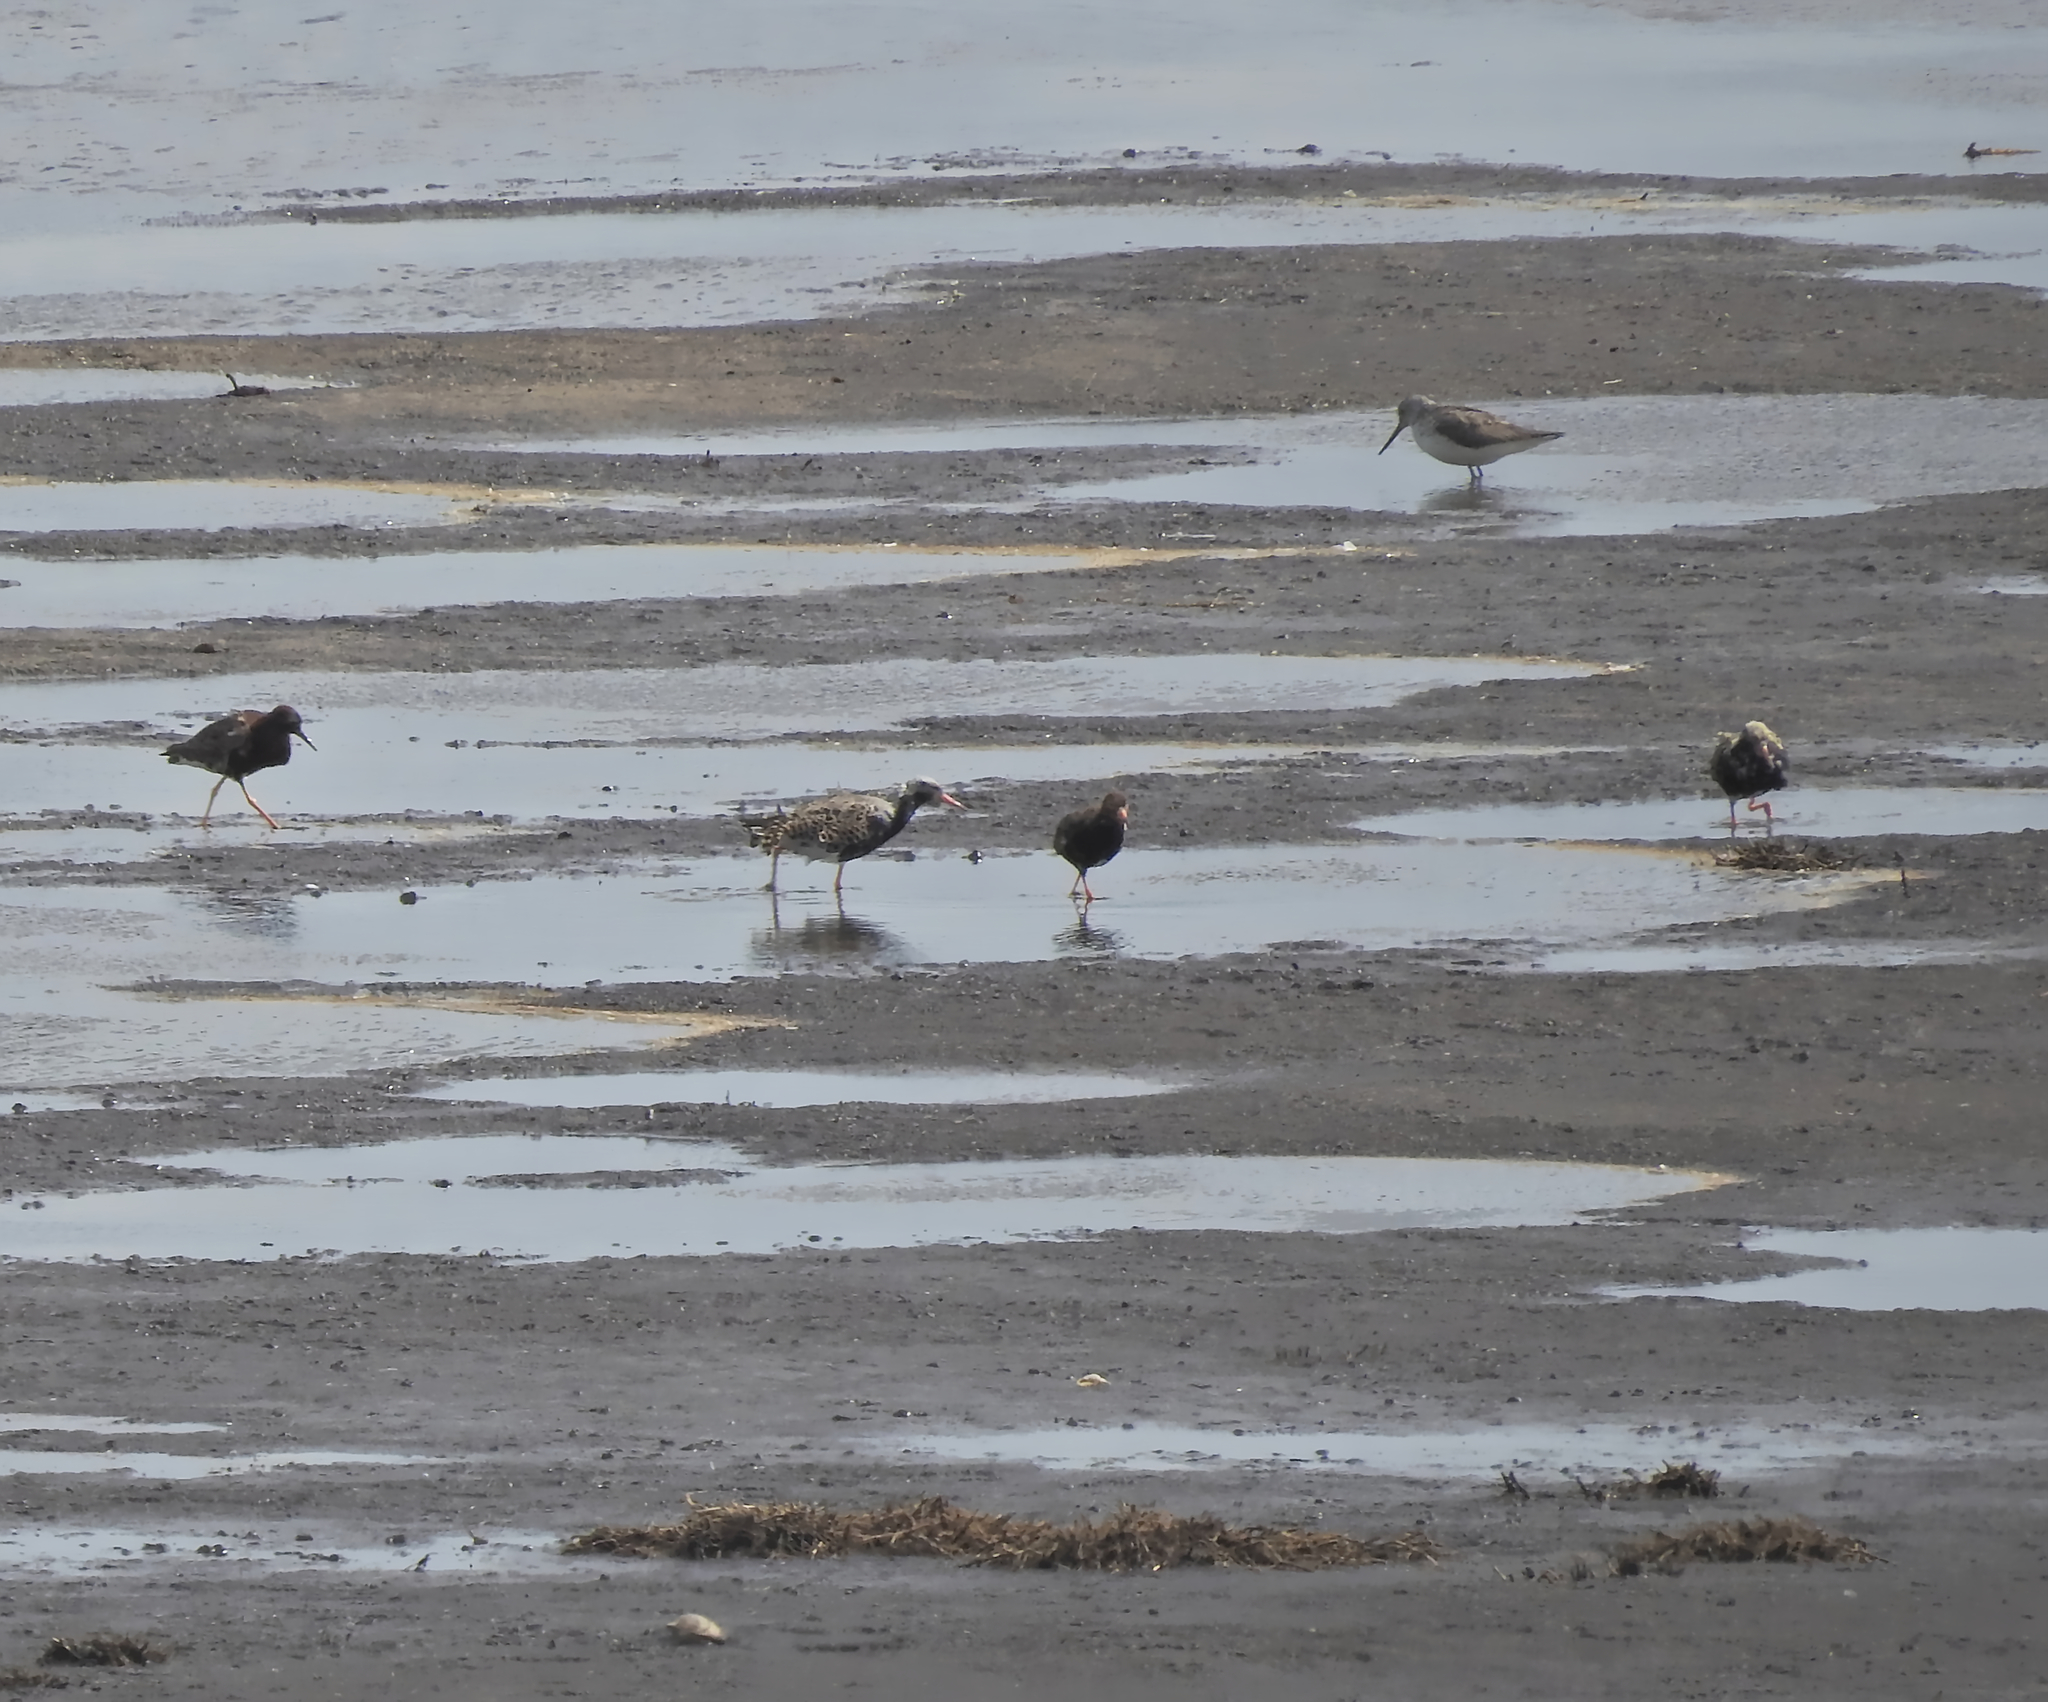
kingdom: Animalia
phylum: Chordata
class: Aves
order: Charadriiformes
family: Scolopacidae
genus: Tringa
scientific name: Tringa nebularia
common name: Common greenshank
